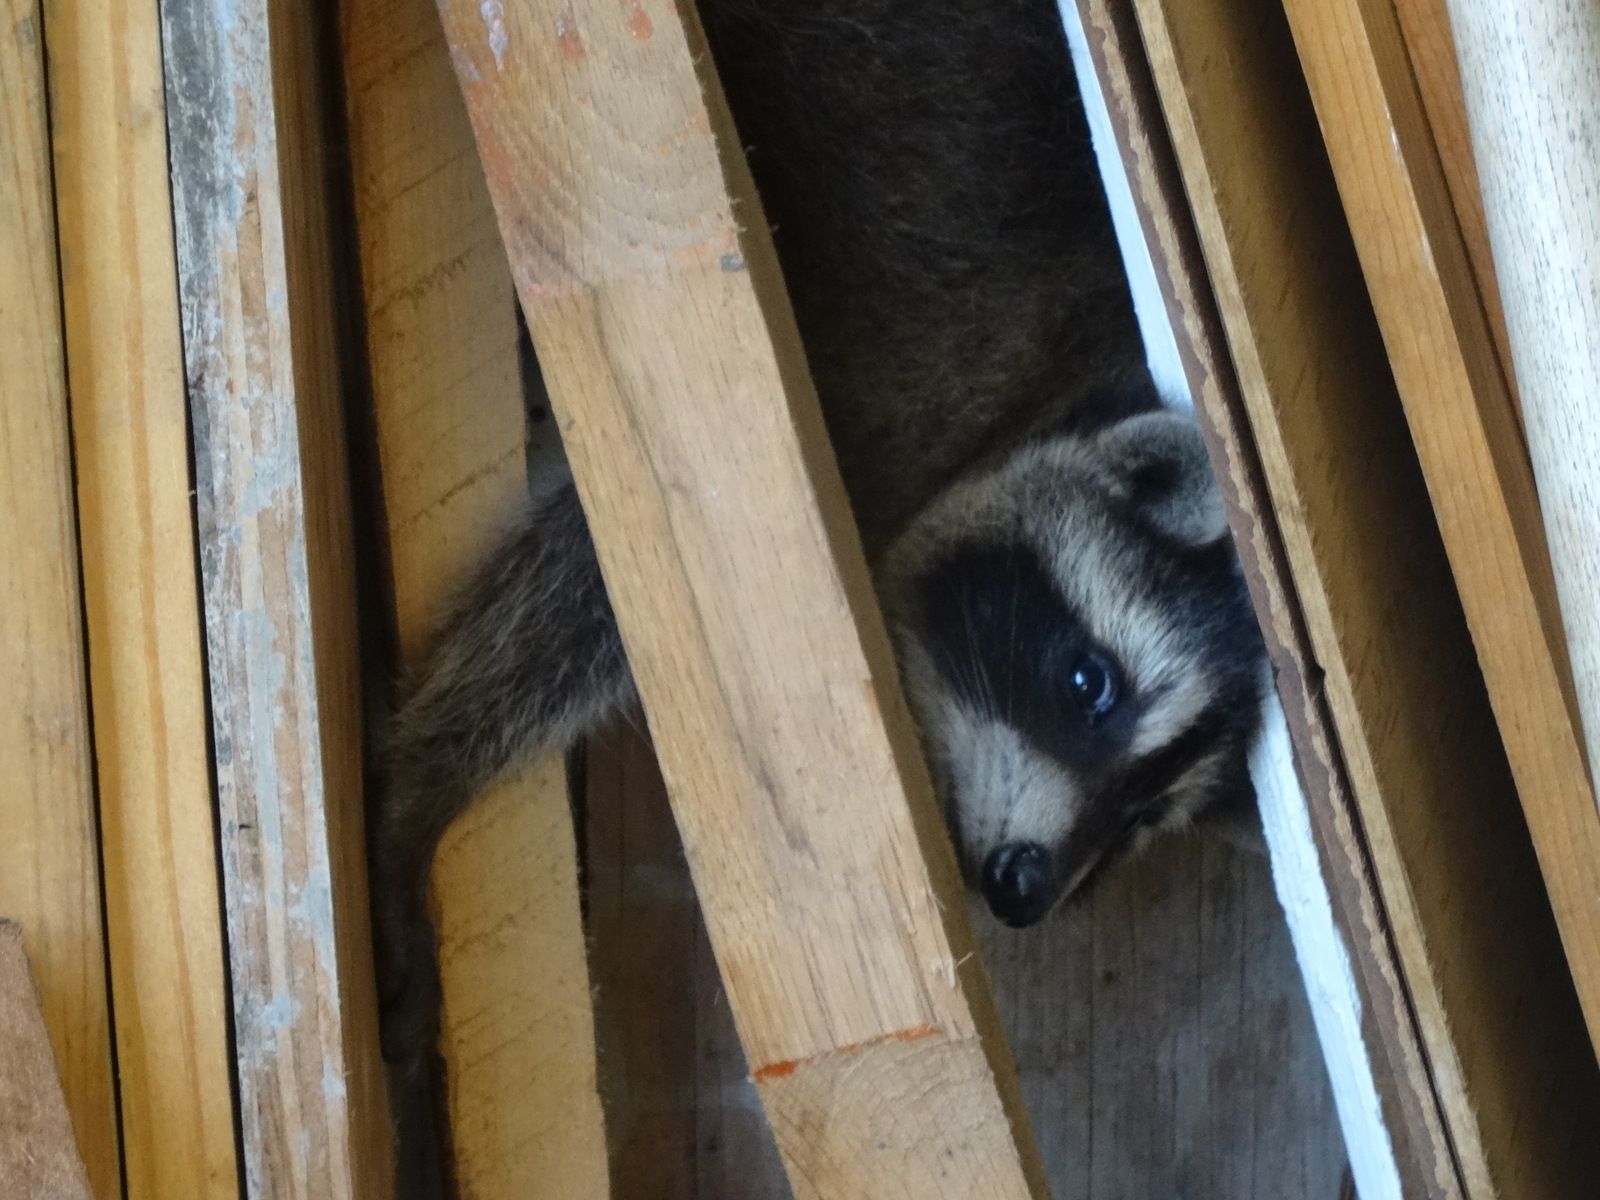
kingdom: Animalia
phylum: Chordata
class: Mammalia
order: Carnivora
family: Procyonidae
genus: Procyon
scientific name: Procyon lotor
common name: Raccoon
